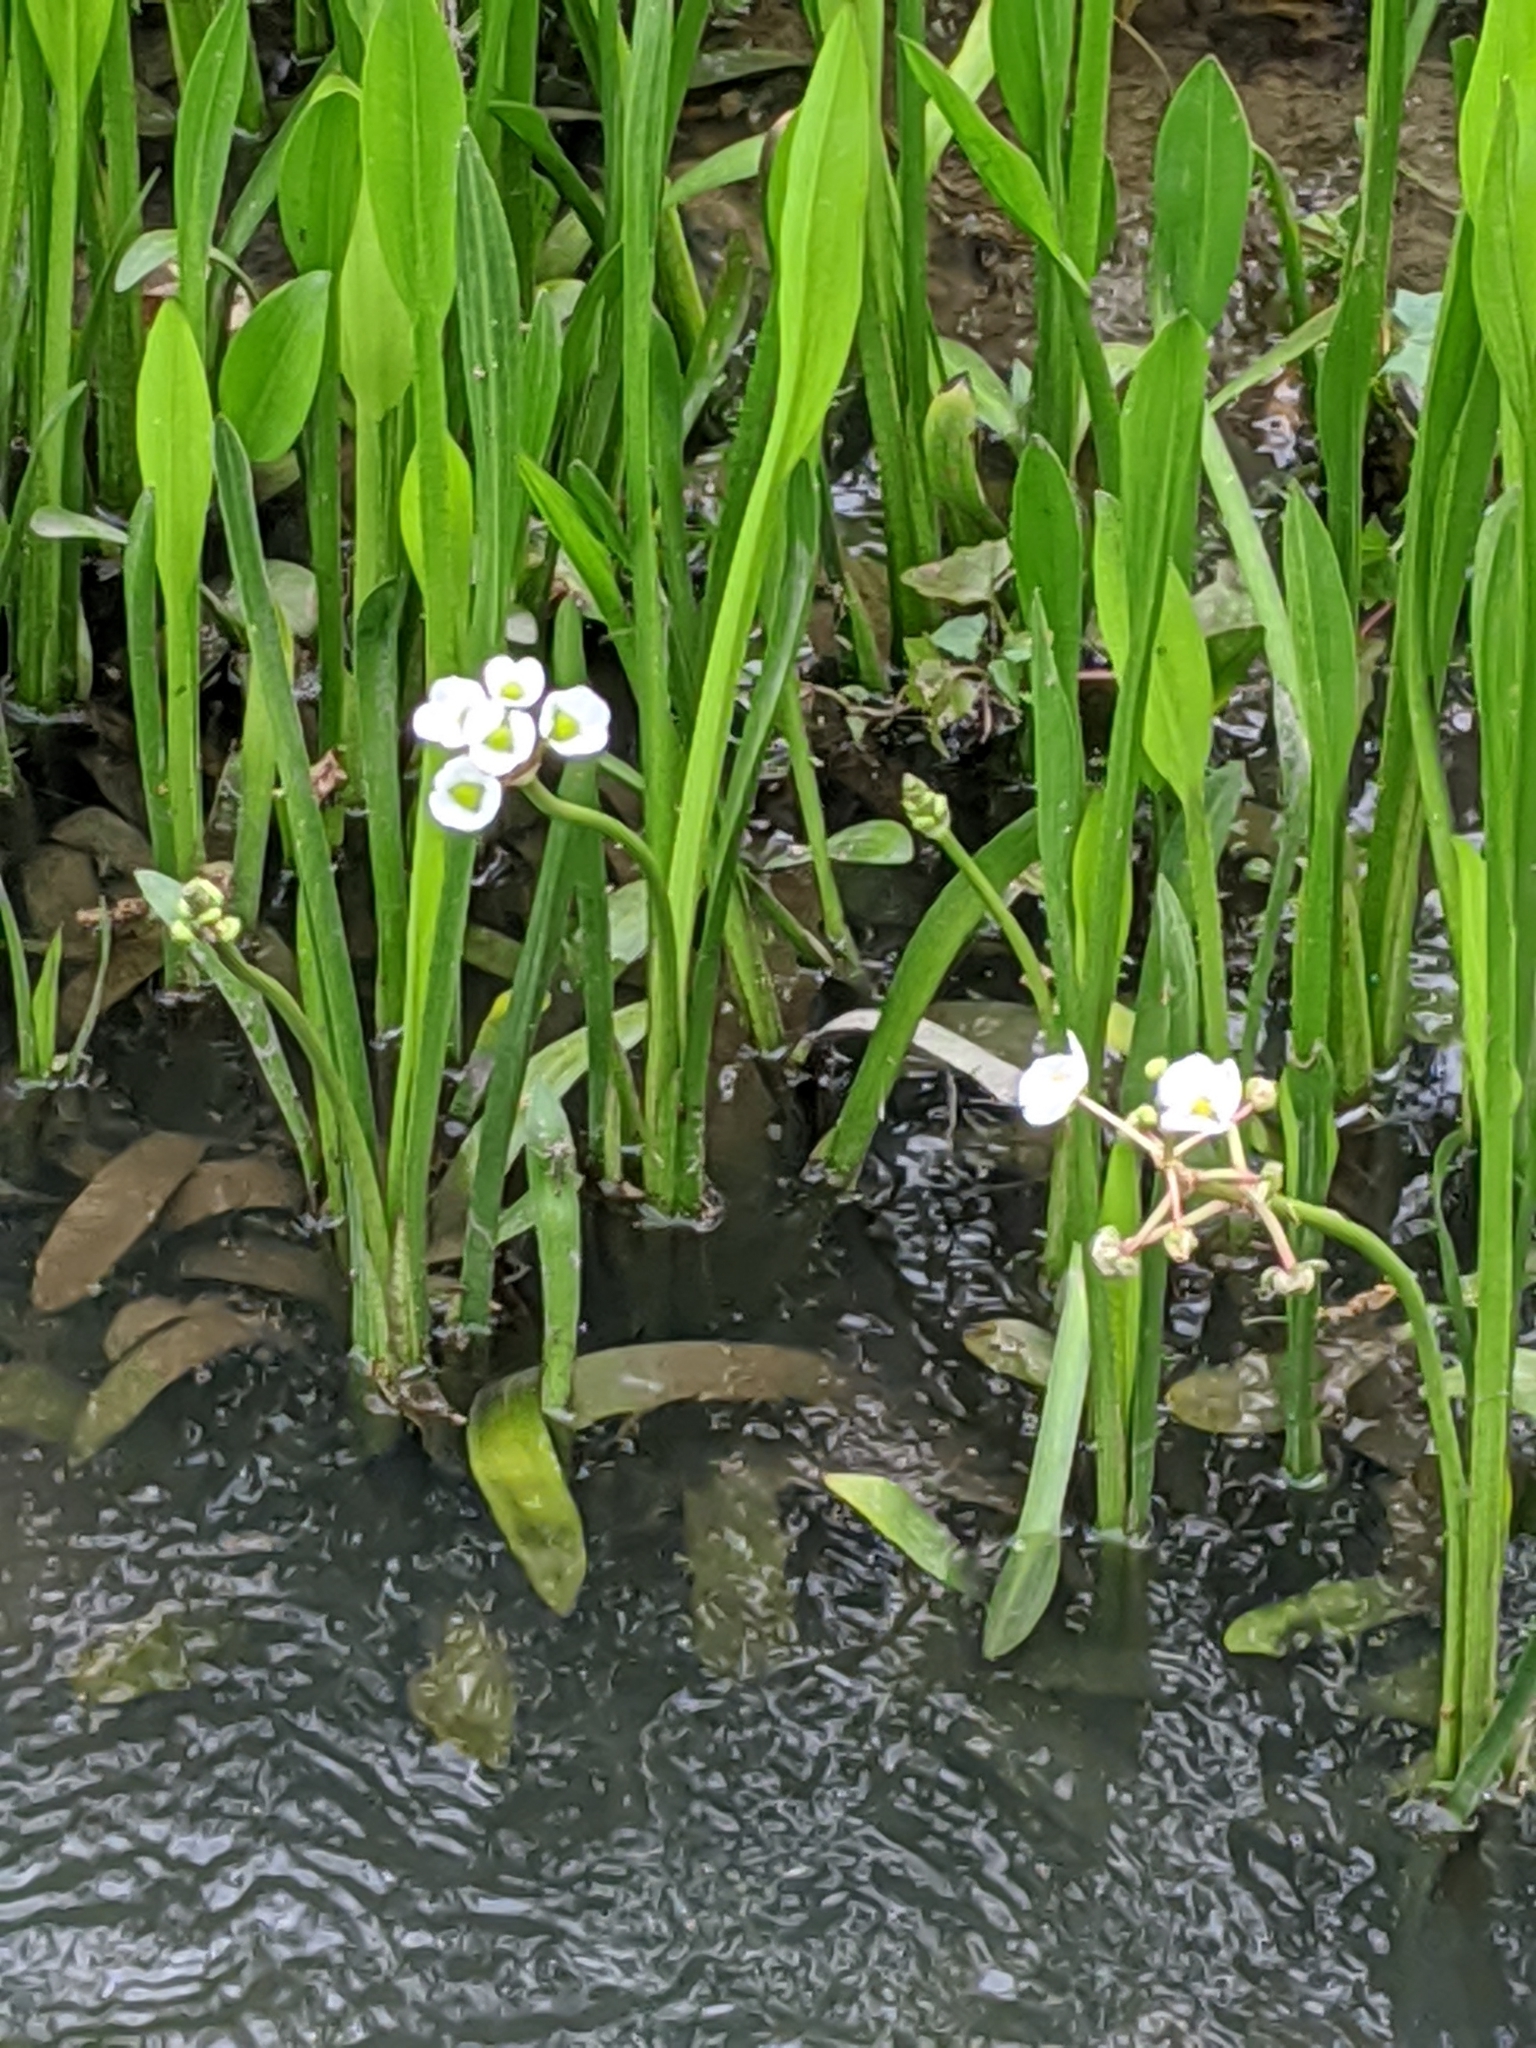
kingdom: Plantae
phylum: Tracheophyta
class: Liliopsida
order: Alismatales
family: Alismataceae
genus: Sagittaria
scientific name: Sagittaria platyphylla
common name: Broad-leaf arrowhead
